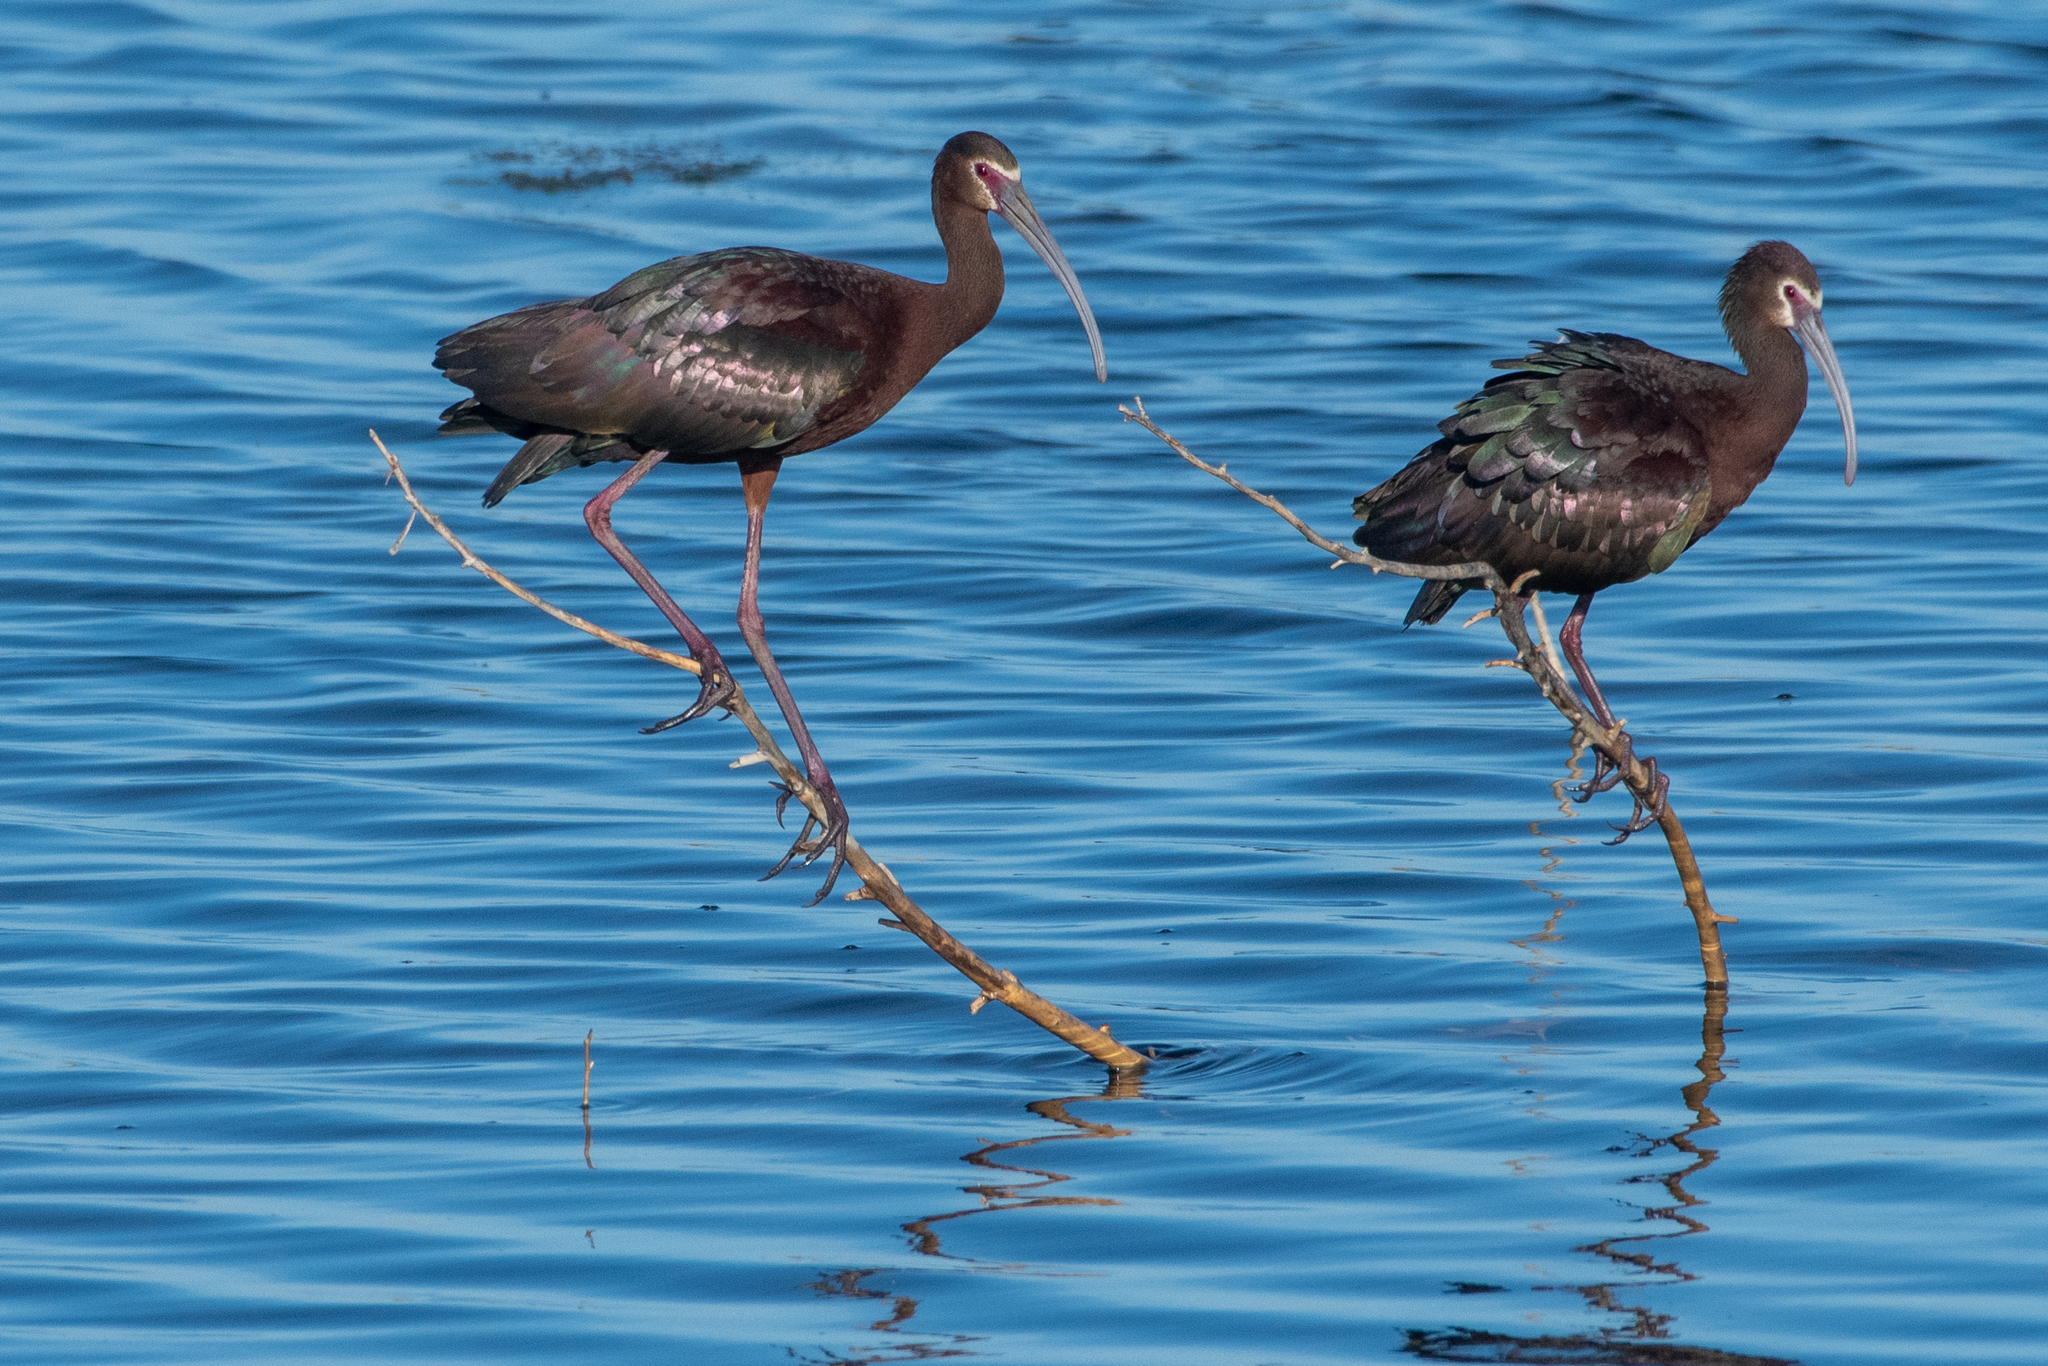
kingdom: Animalia
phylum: Chordata
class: Aves
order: Pelecaniformes
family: Threskiornithidae
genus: Plegadis
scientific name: Plegadis chihi
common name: White-faced ibis
